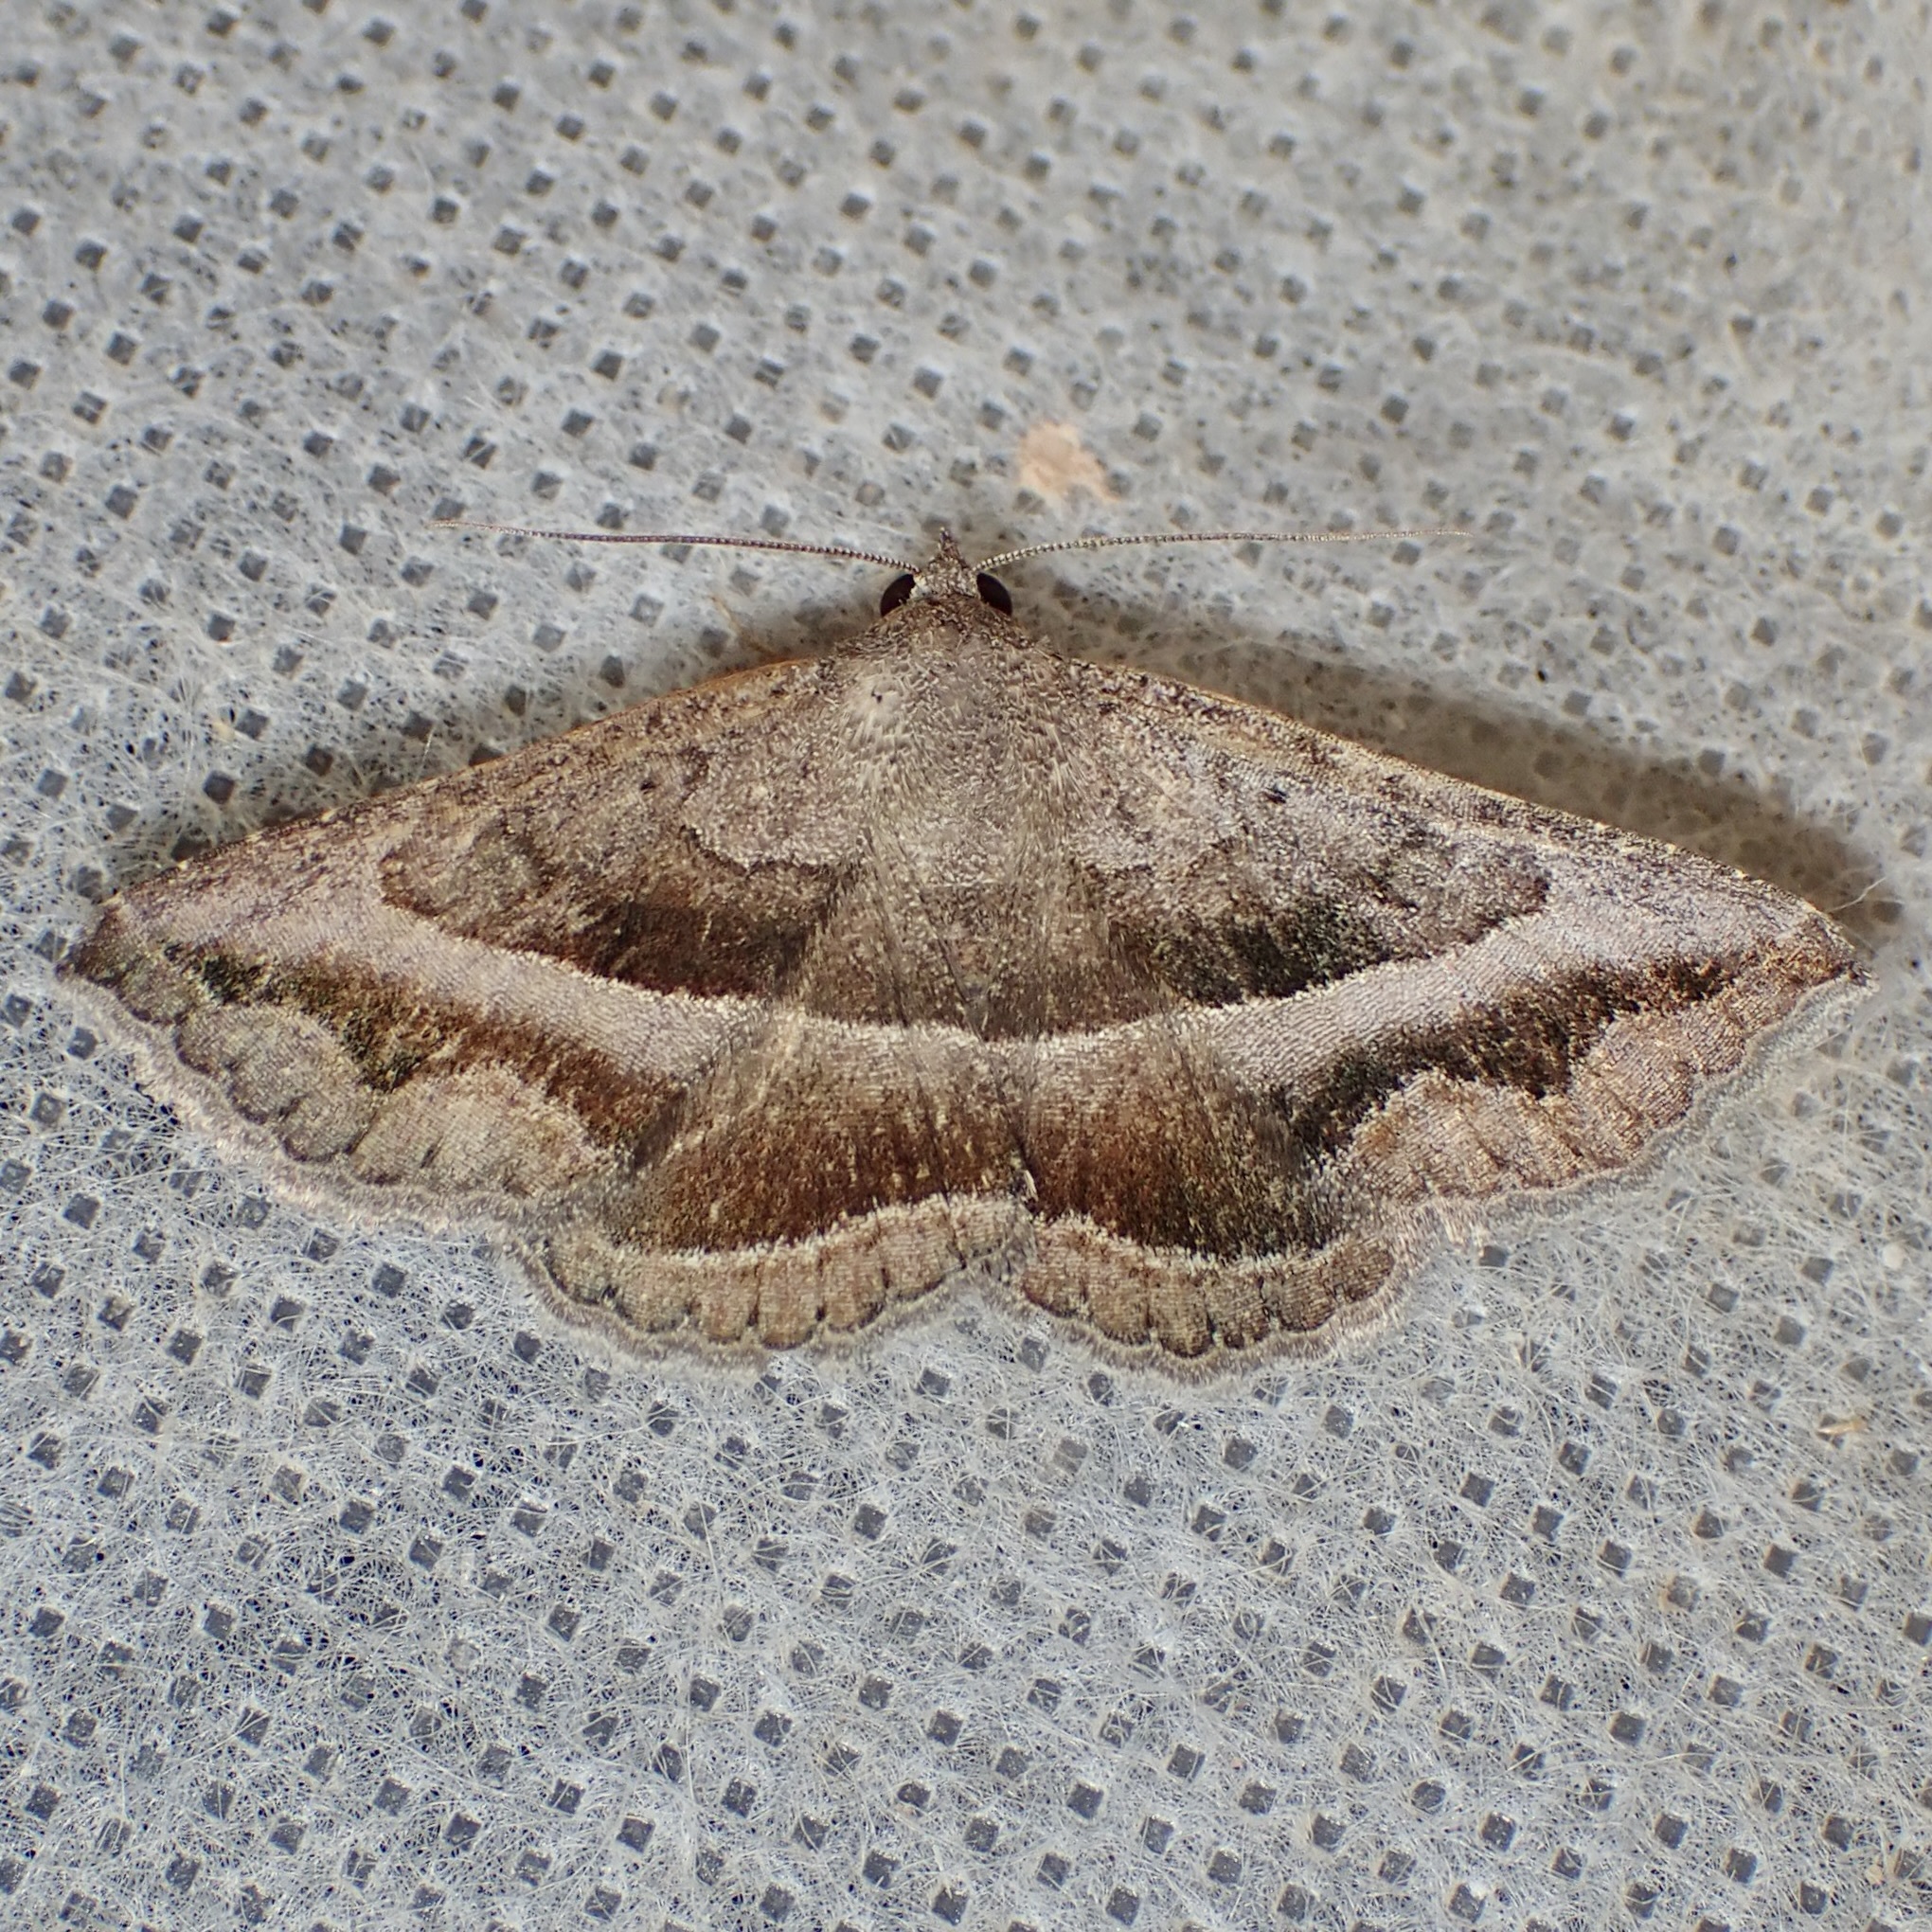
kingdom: Animalia
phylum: Arthropoda
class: Insecta
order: Lepidoptera
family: Erebidae
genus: Lesmone
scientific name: Lesmone griseipennis
